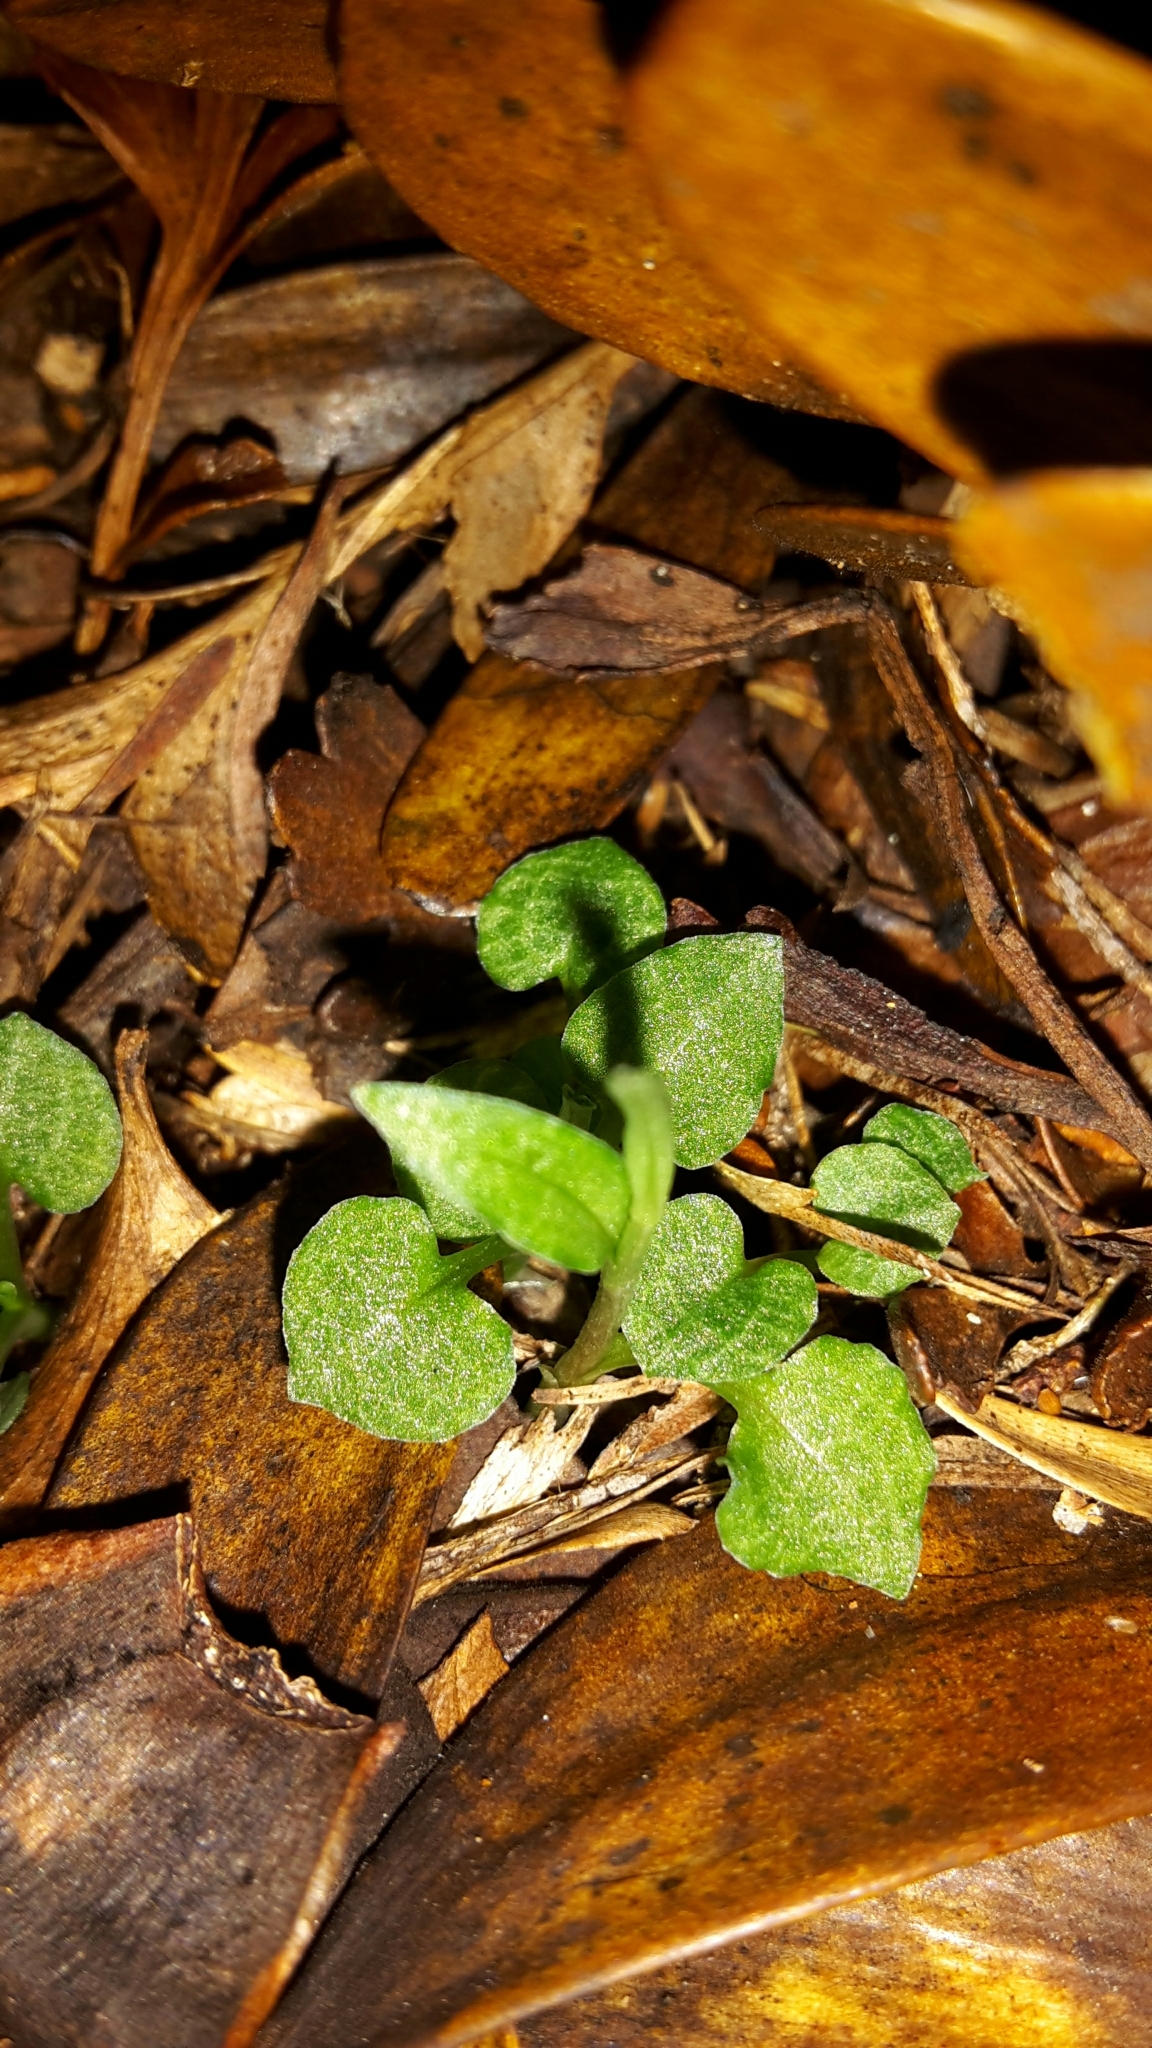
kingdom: Plantae
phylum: Tracheophyta
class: Liliopsida
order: Asparagales
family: Orchidaceae
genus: Pterostylis
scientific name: Pterostylis trullifolia
